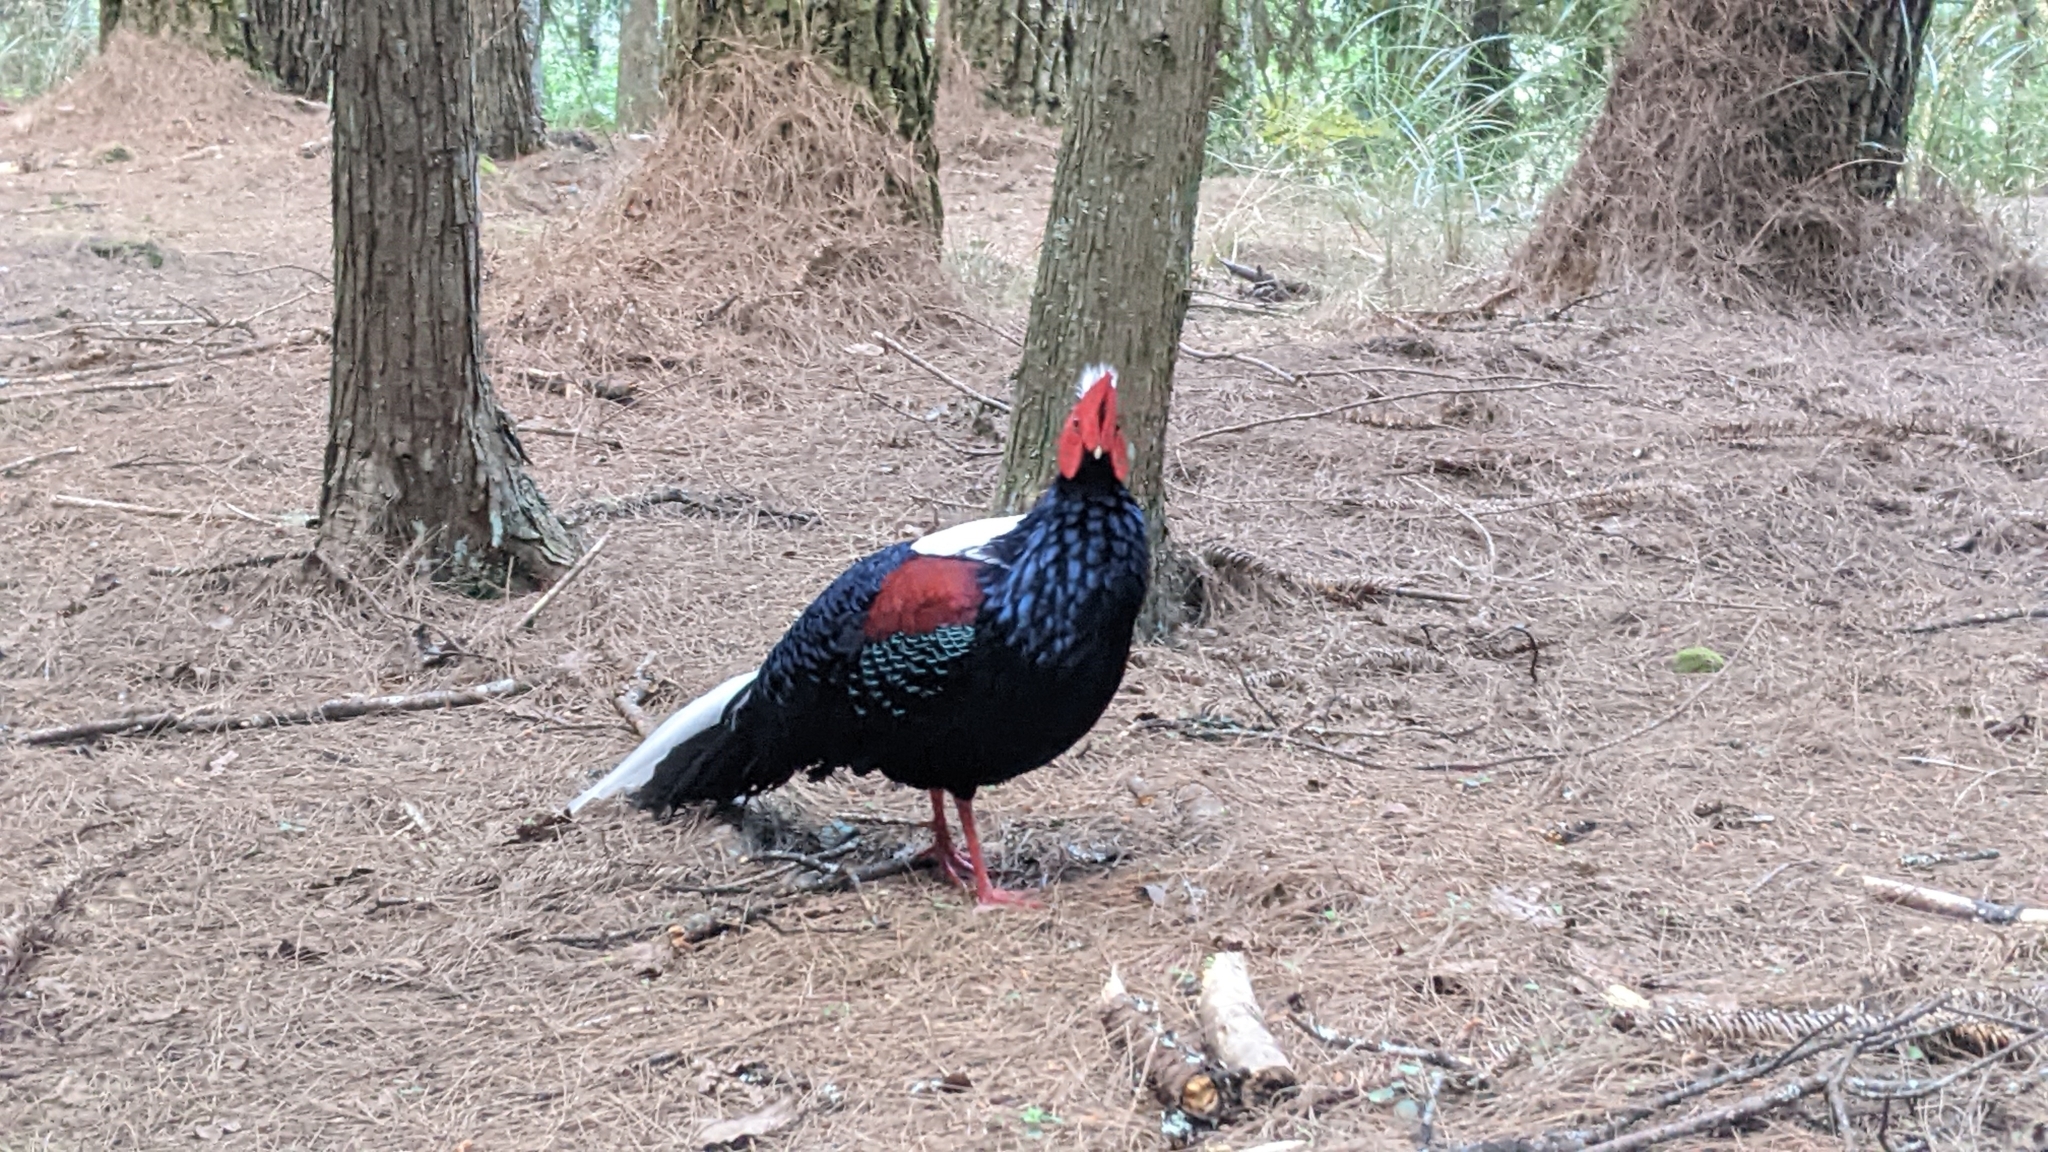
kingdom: Animalia
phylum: Chordata
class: Aves
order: Galliformes
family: Phasianidae
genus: Lophura
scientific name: Lophura swinhoii
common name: Swinhoe's pheasant
